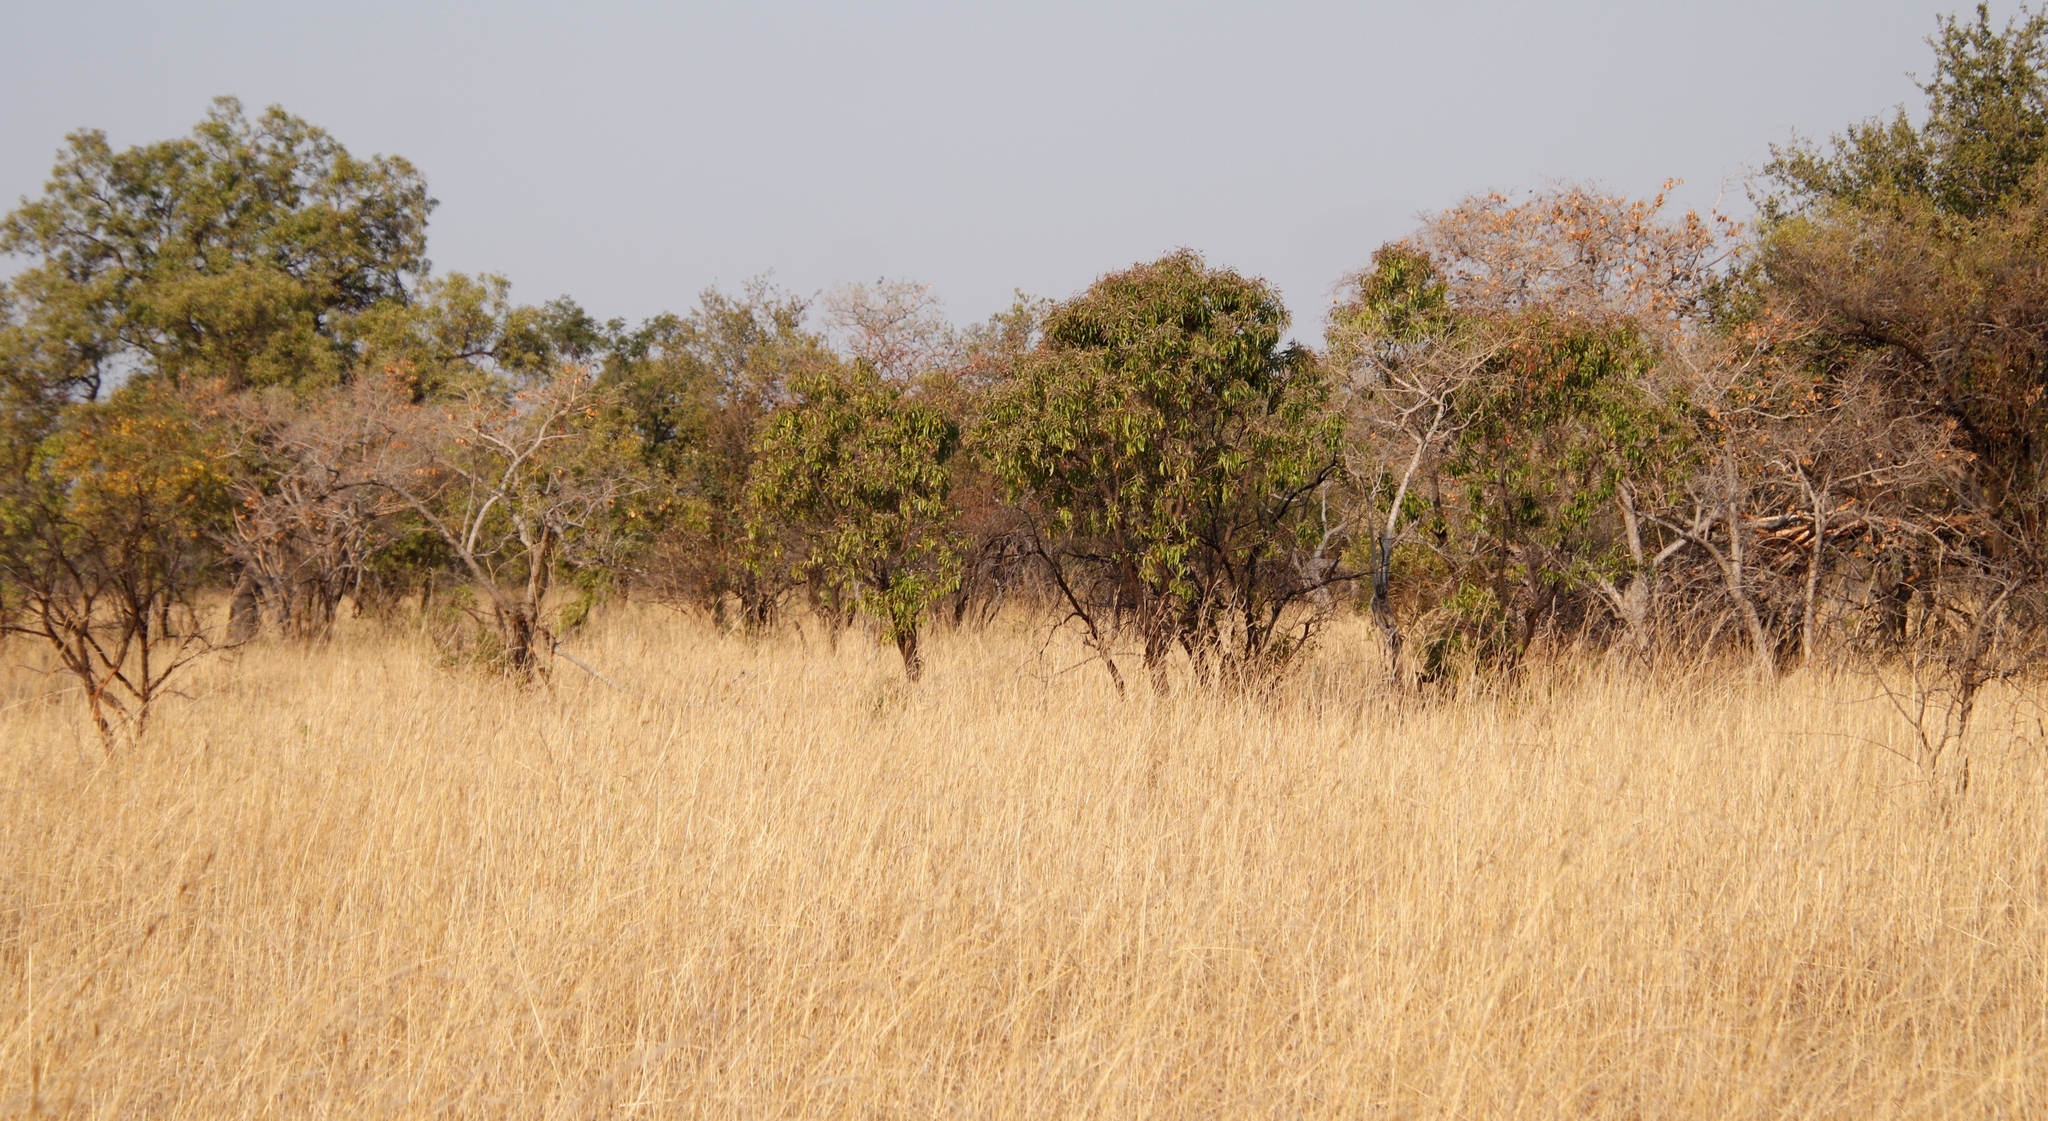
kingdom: Plantae
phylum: Tracheophyta
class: Magnoliopsida
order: Proteales
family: Proteaceae
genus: Faurea
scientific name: Faurea saligna
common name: African bean
